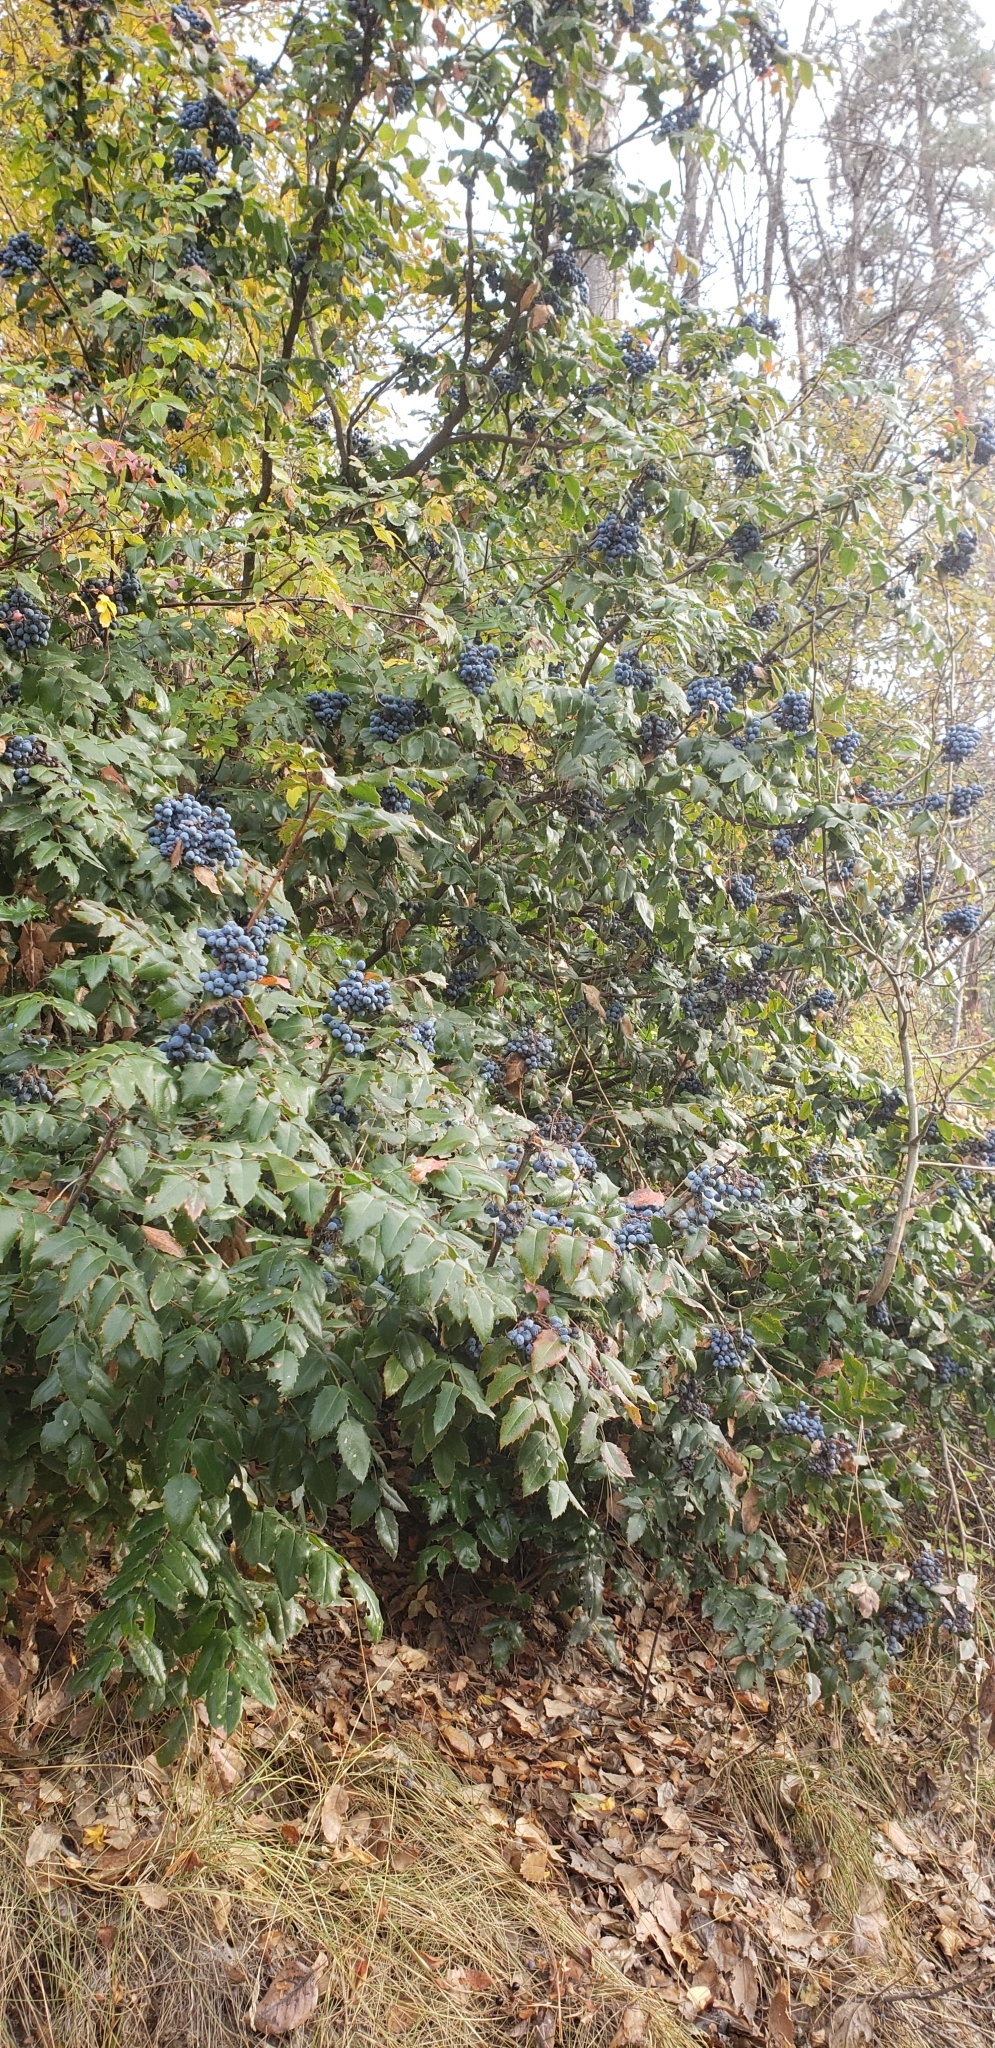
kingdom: Plantae
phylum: Tracheophyta
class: Magnoliopsida
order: Ranunculales
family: Berberidaceae
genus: Mahonia
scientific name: Mahonia aquifolium
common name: Oregon-grape
